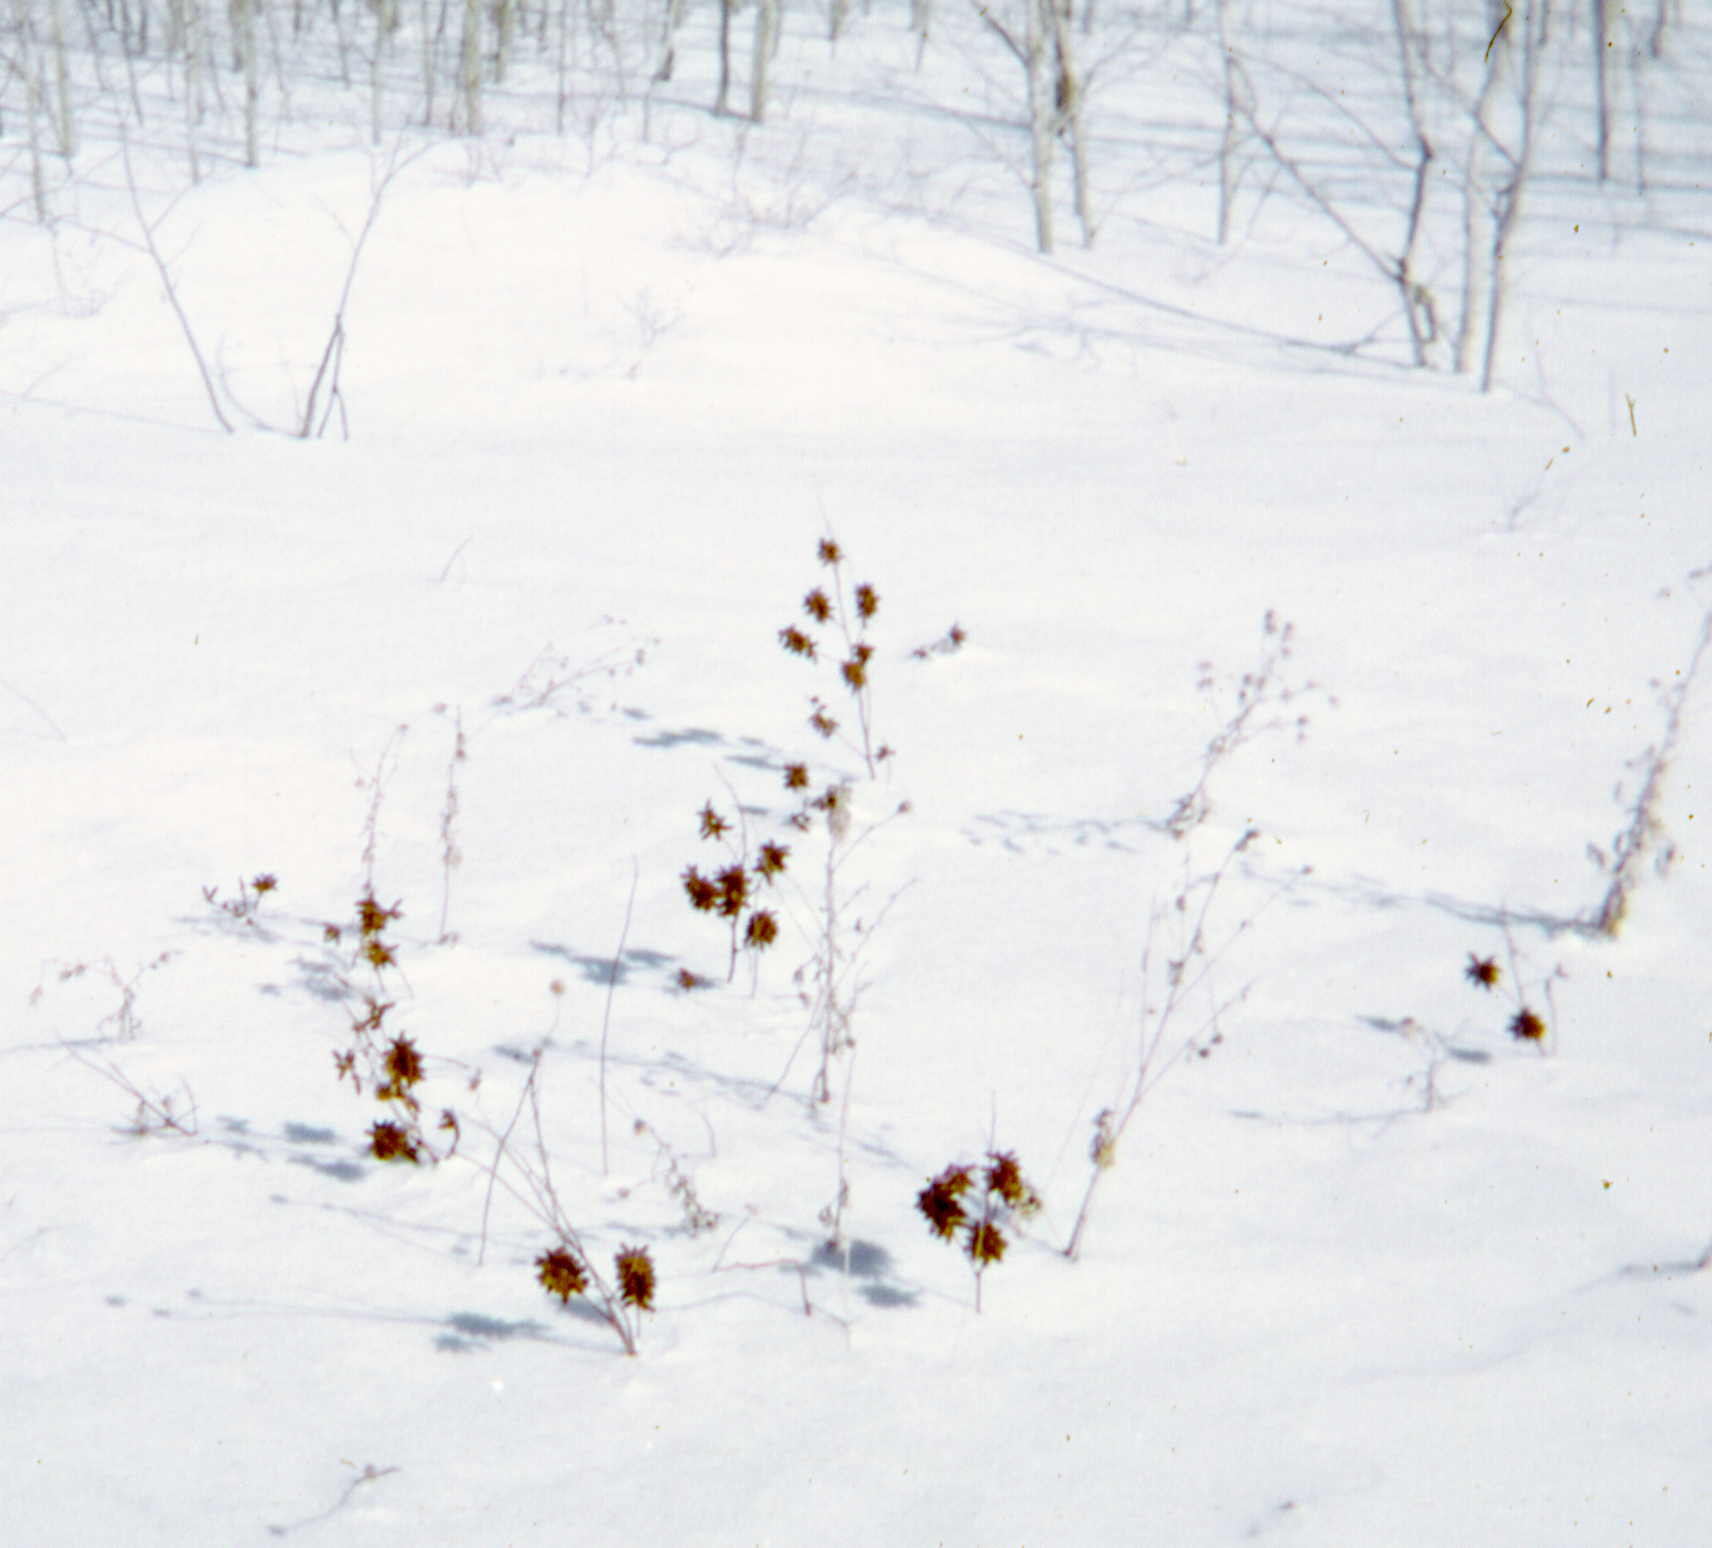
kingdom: Plantae
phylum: Tracheophyta
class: Magnoliopsida
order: Fabales
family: Fabaceae
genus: Glycyrrhiza
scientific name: Glycyrrhiza lepidota
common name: American liquorice
